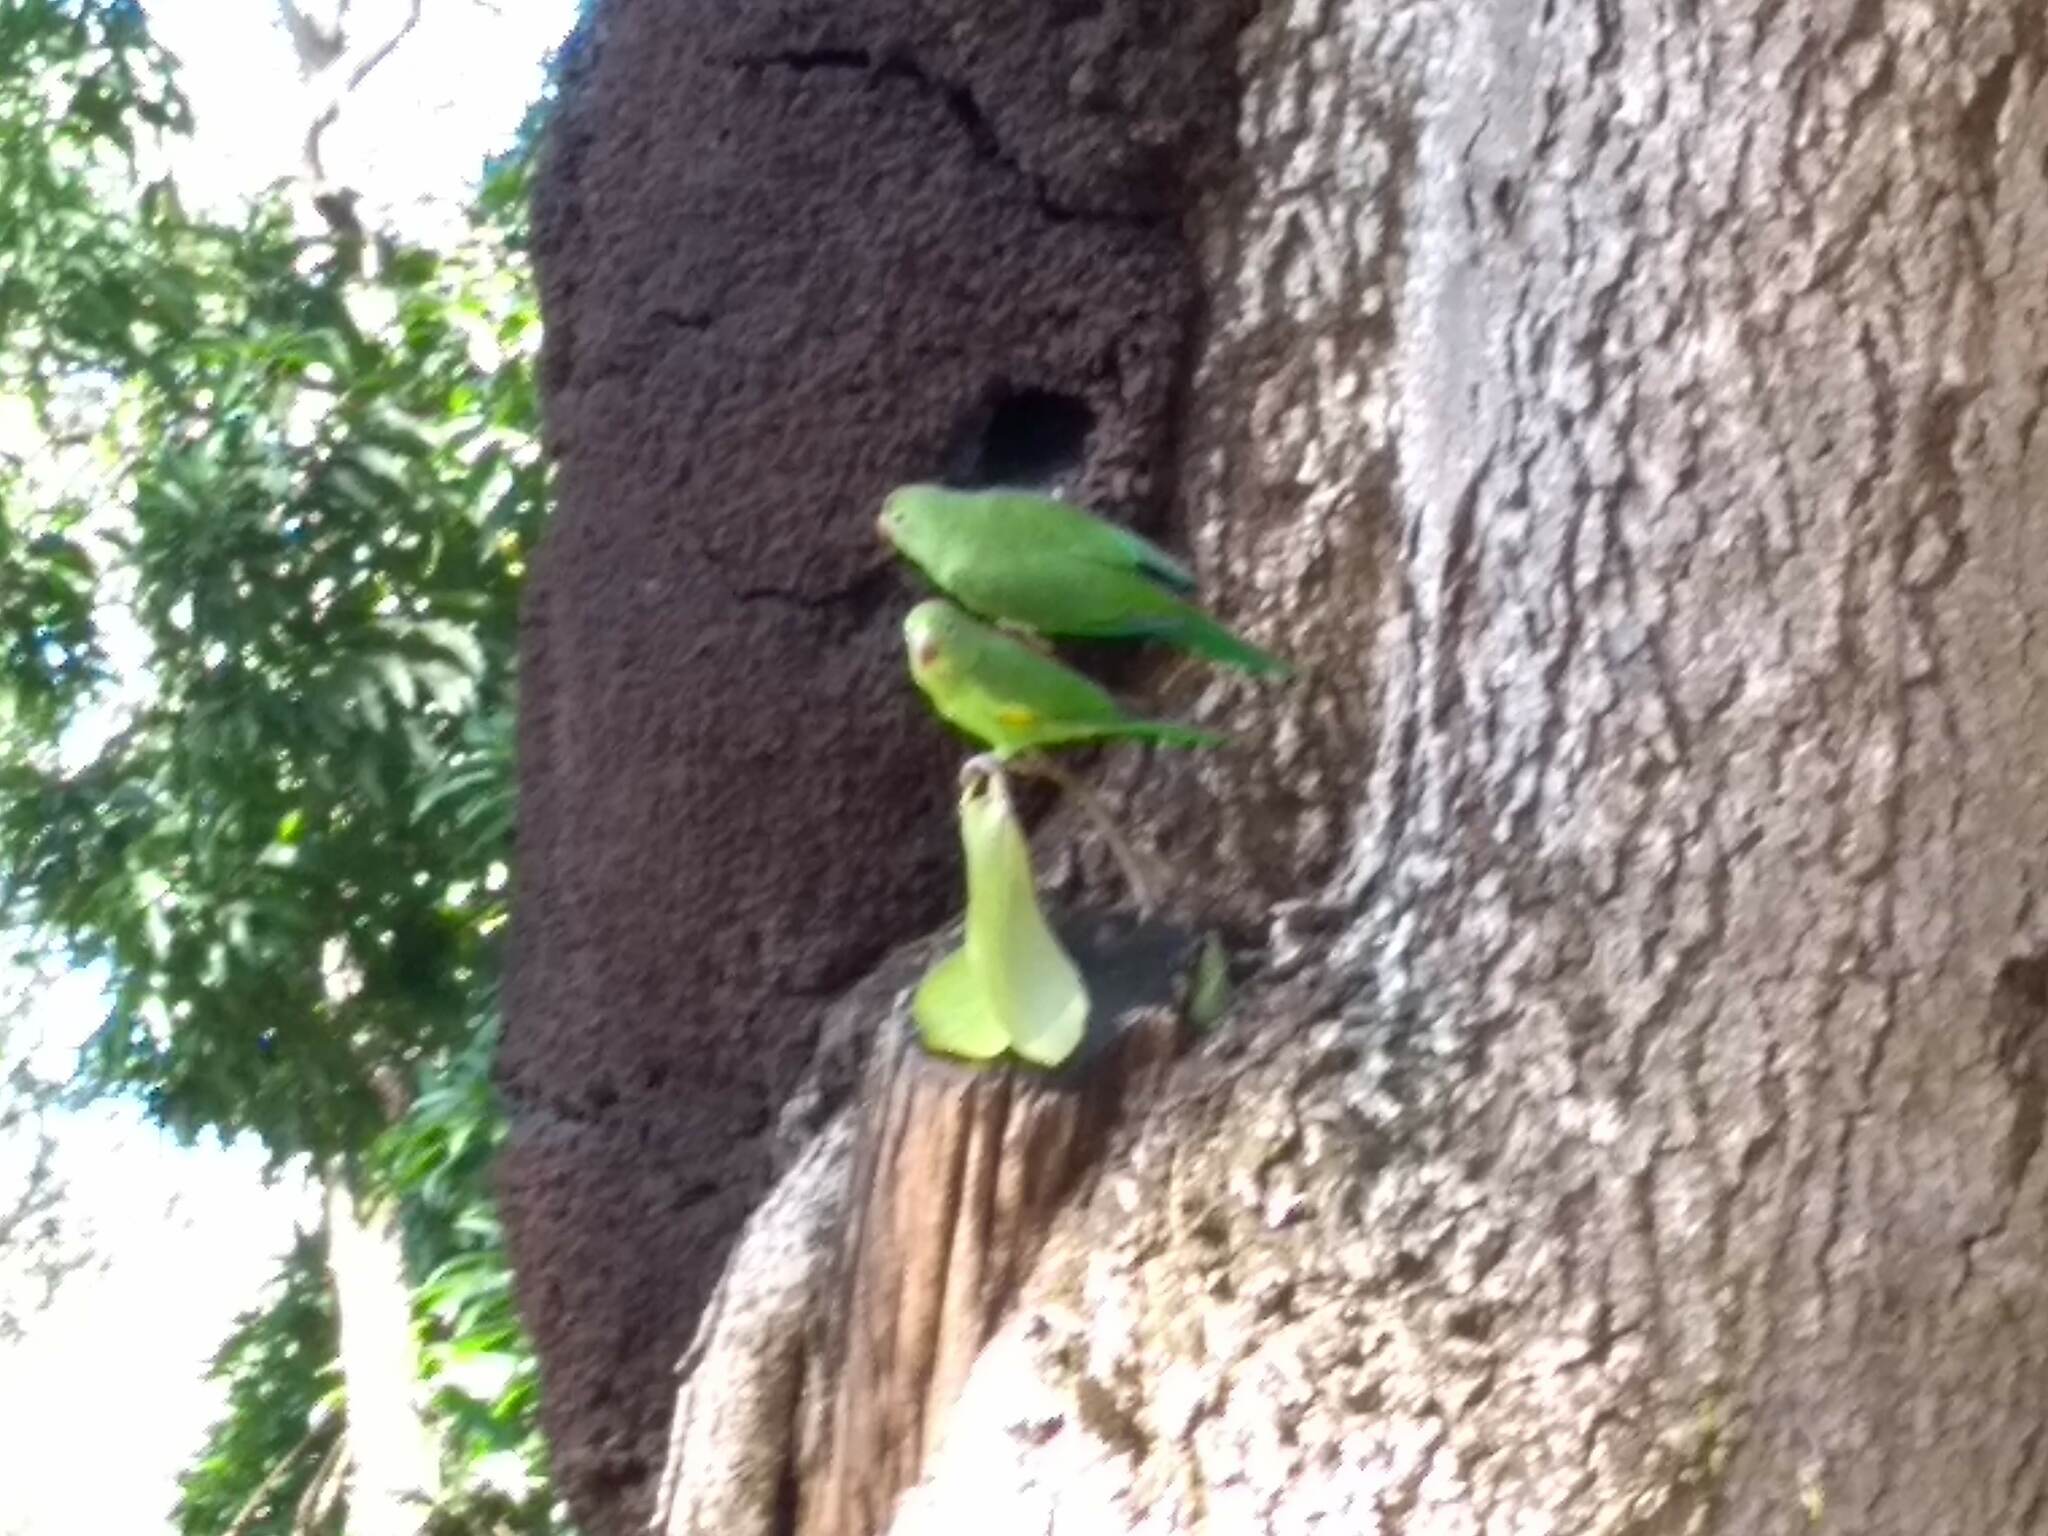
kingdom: Animalia
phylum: Chordata
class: Aves
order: Psittaciformes
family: Psittacidae
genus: Brotogeris
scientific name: Brotogeris chiriri
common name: Yellow-chevroned parakeet
